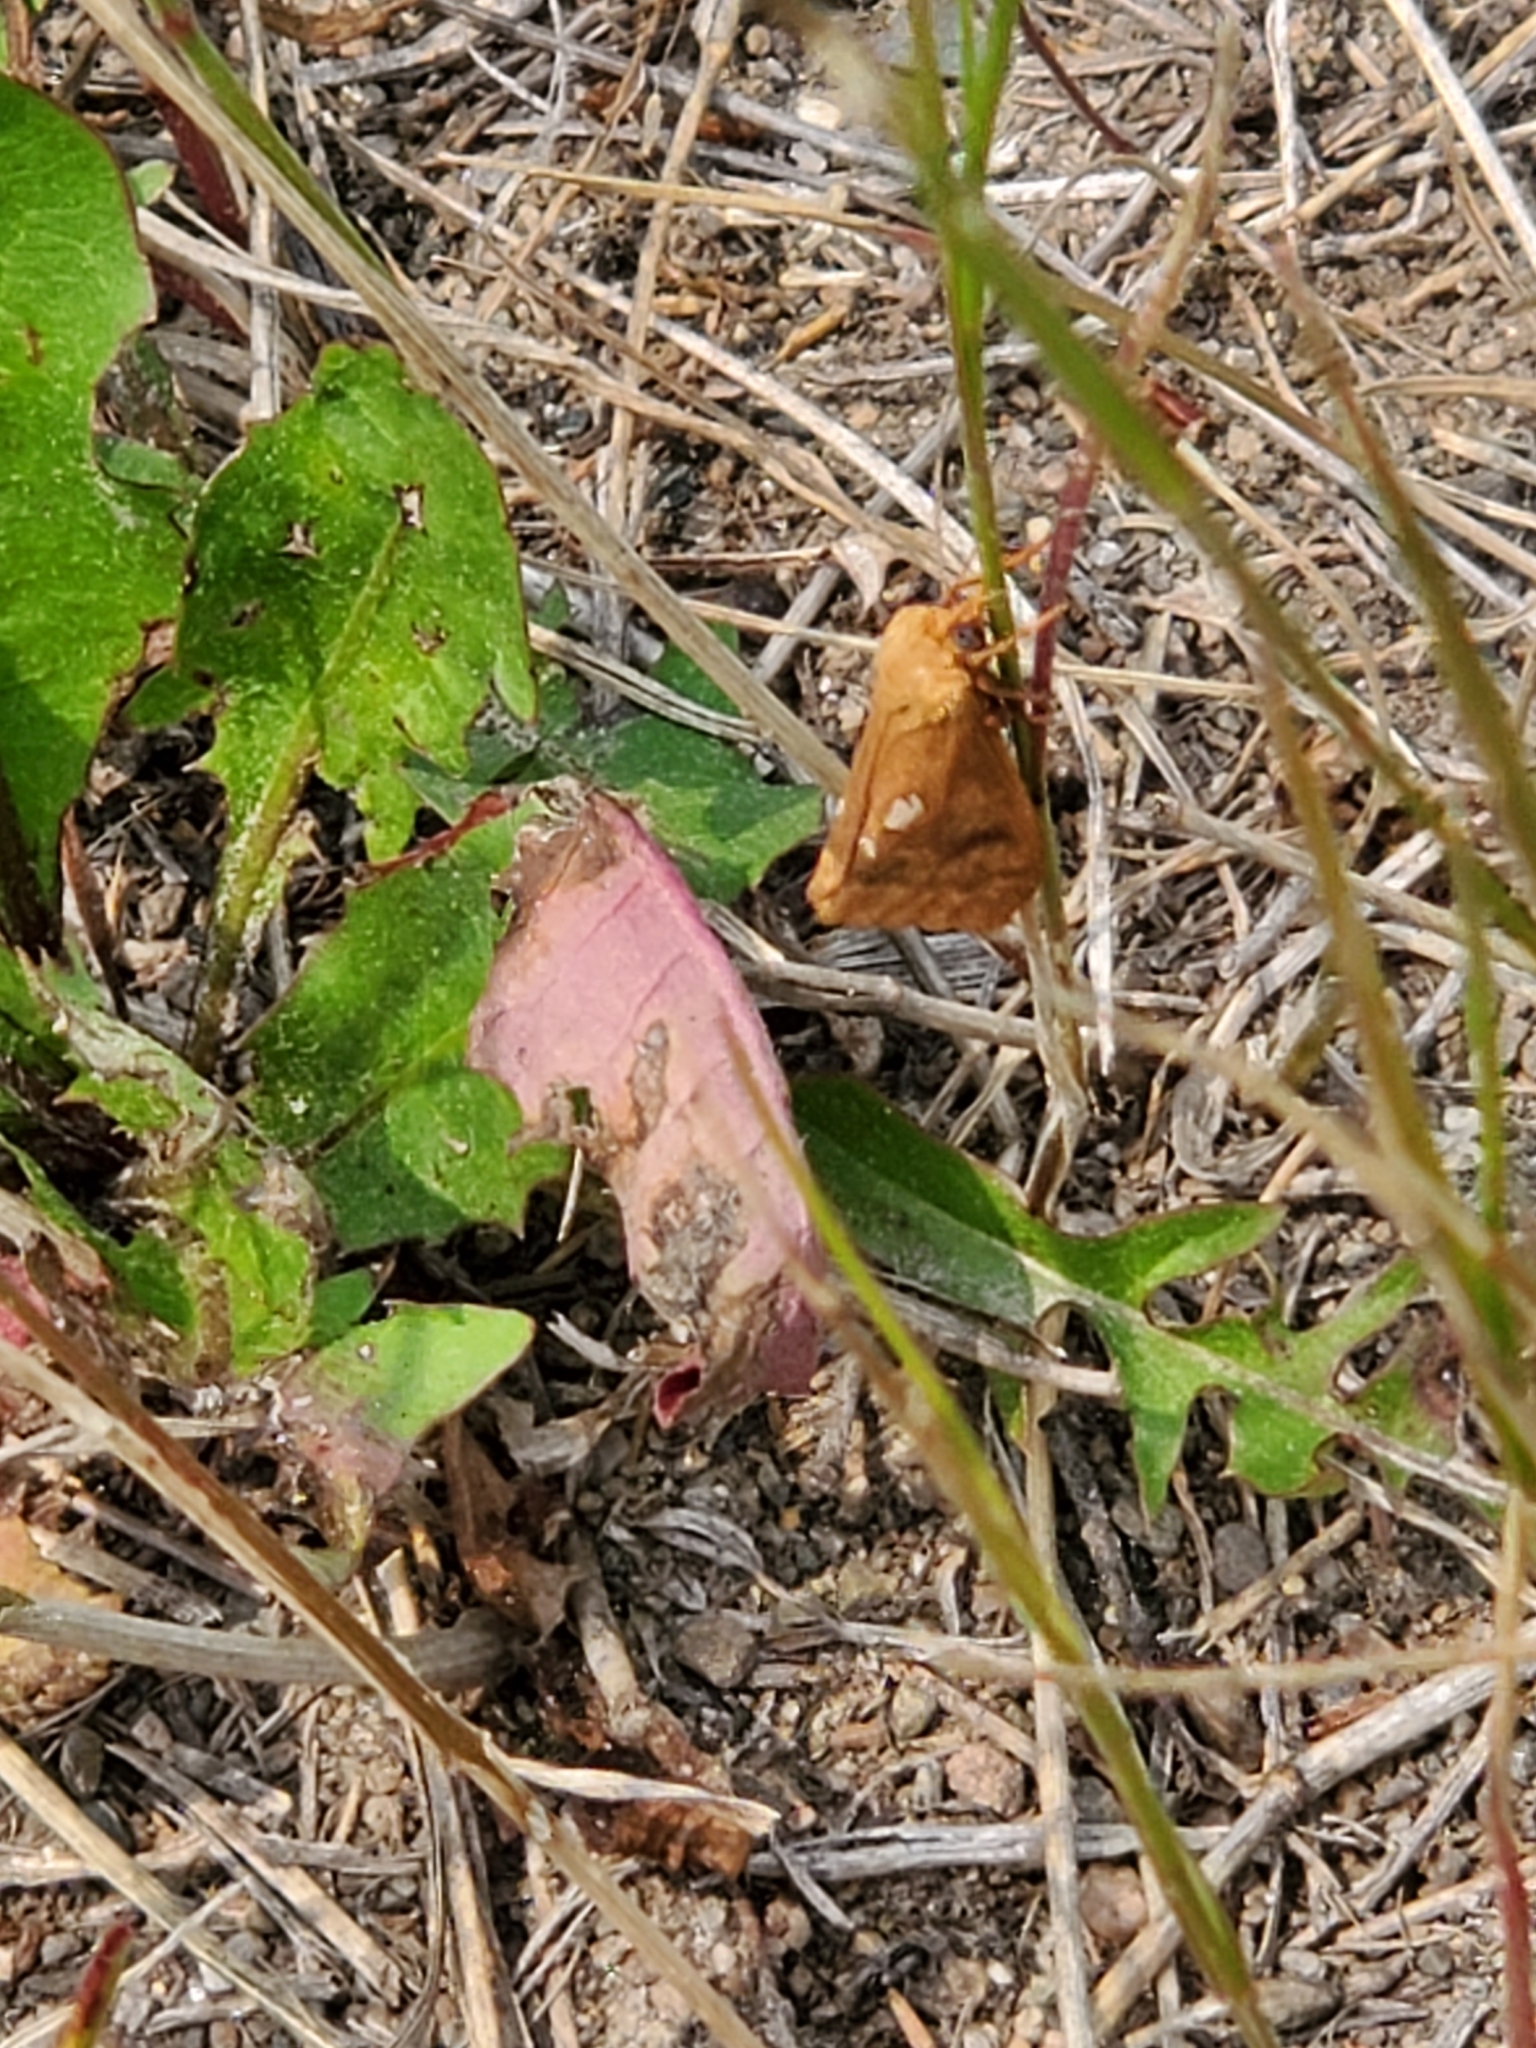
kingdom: Animalia
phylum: Arthropoda
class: Insecta
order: Lepidoptera
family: Hepialidae
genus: Sthenopis
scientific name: Sthenopis purpurascens
